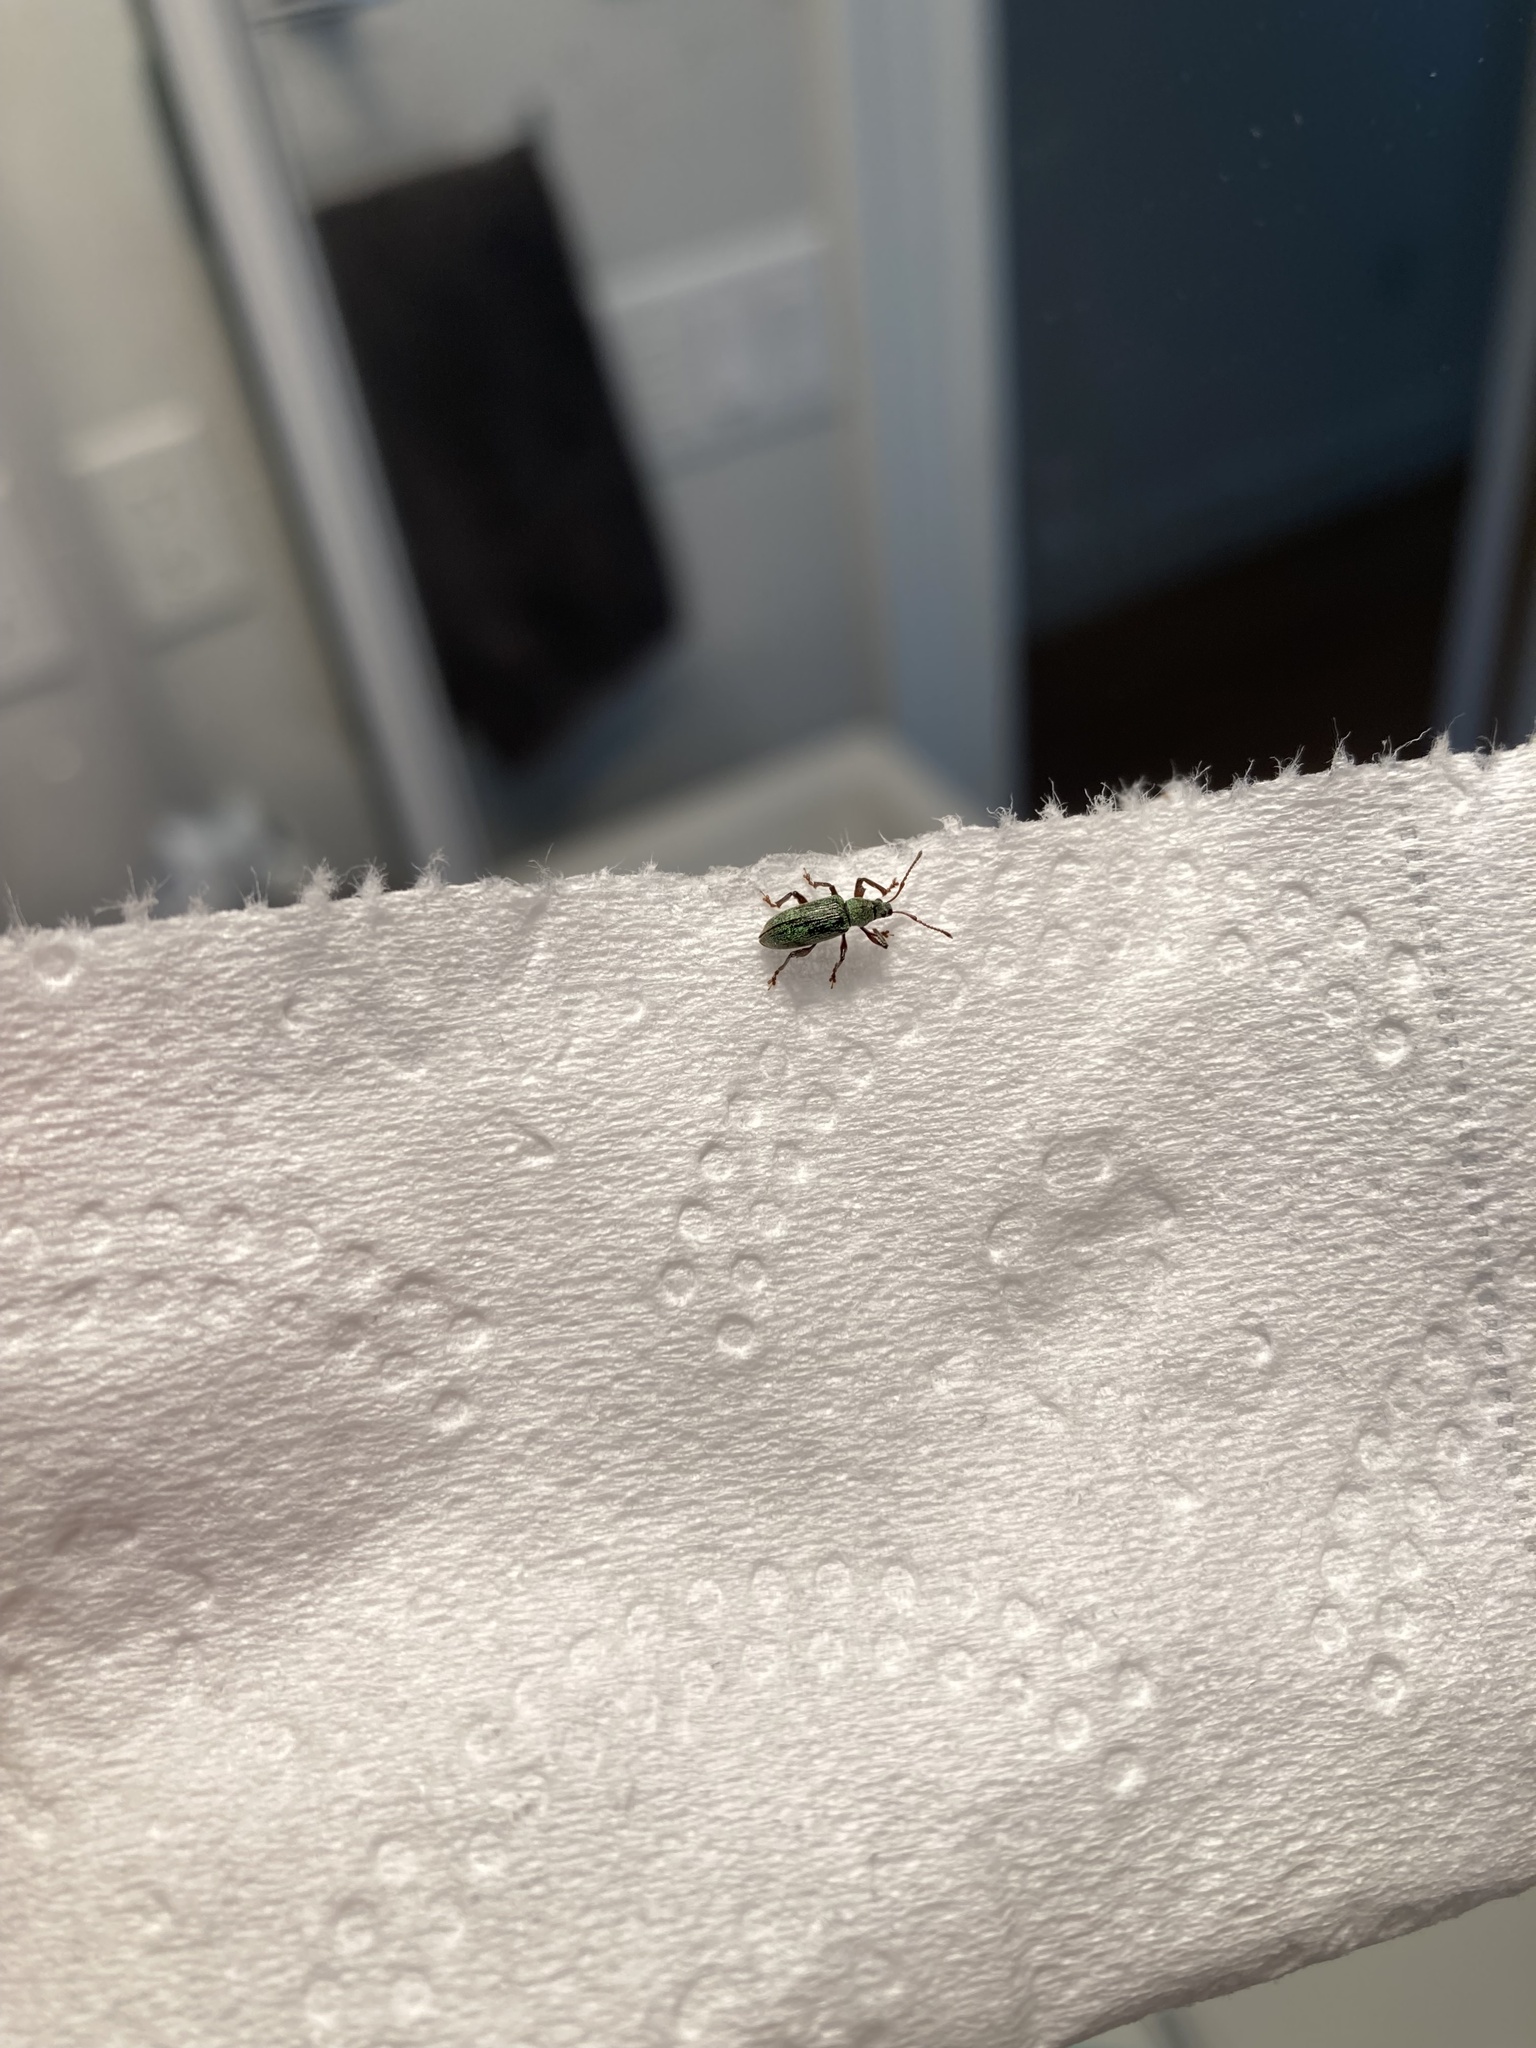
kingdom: Animalia
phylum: Arthropoda
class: Insecta
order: Coleoptera
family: Curculionidae
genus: Parascythopus
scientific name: Parascythopus intrusus
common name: Weevil
